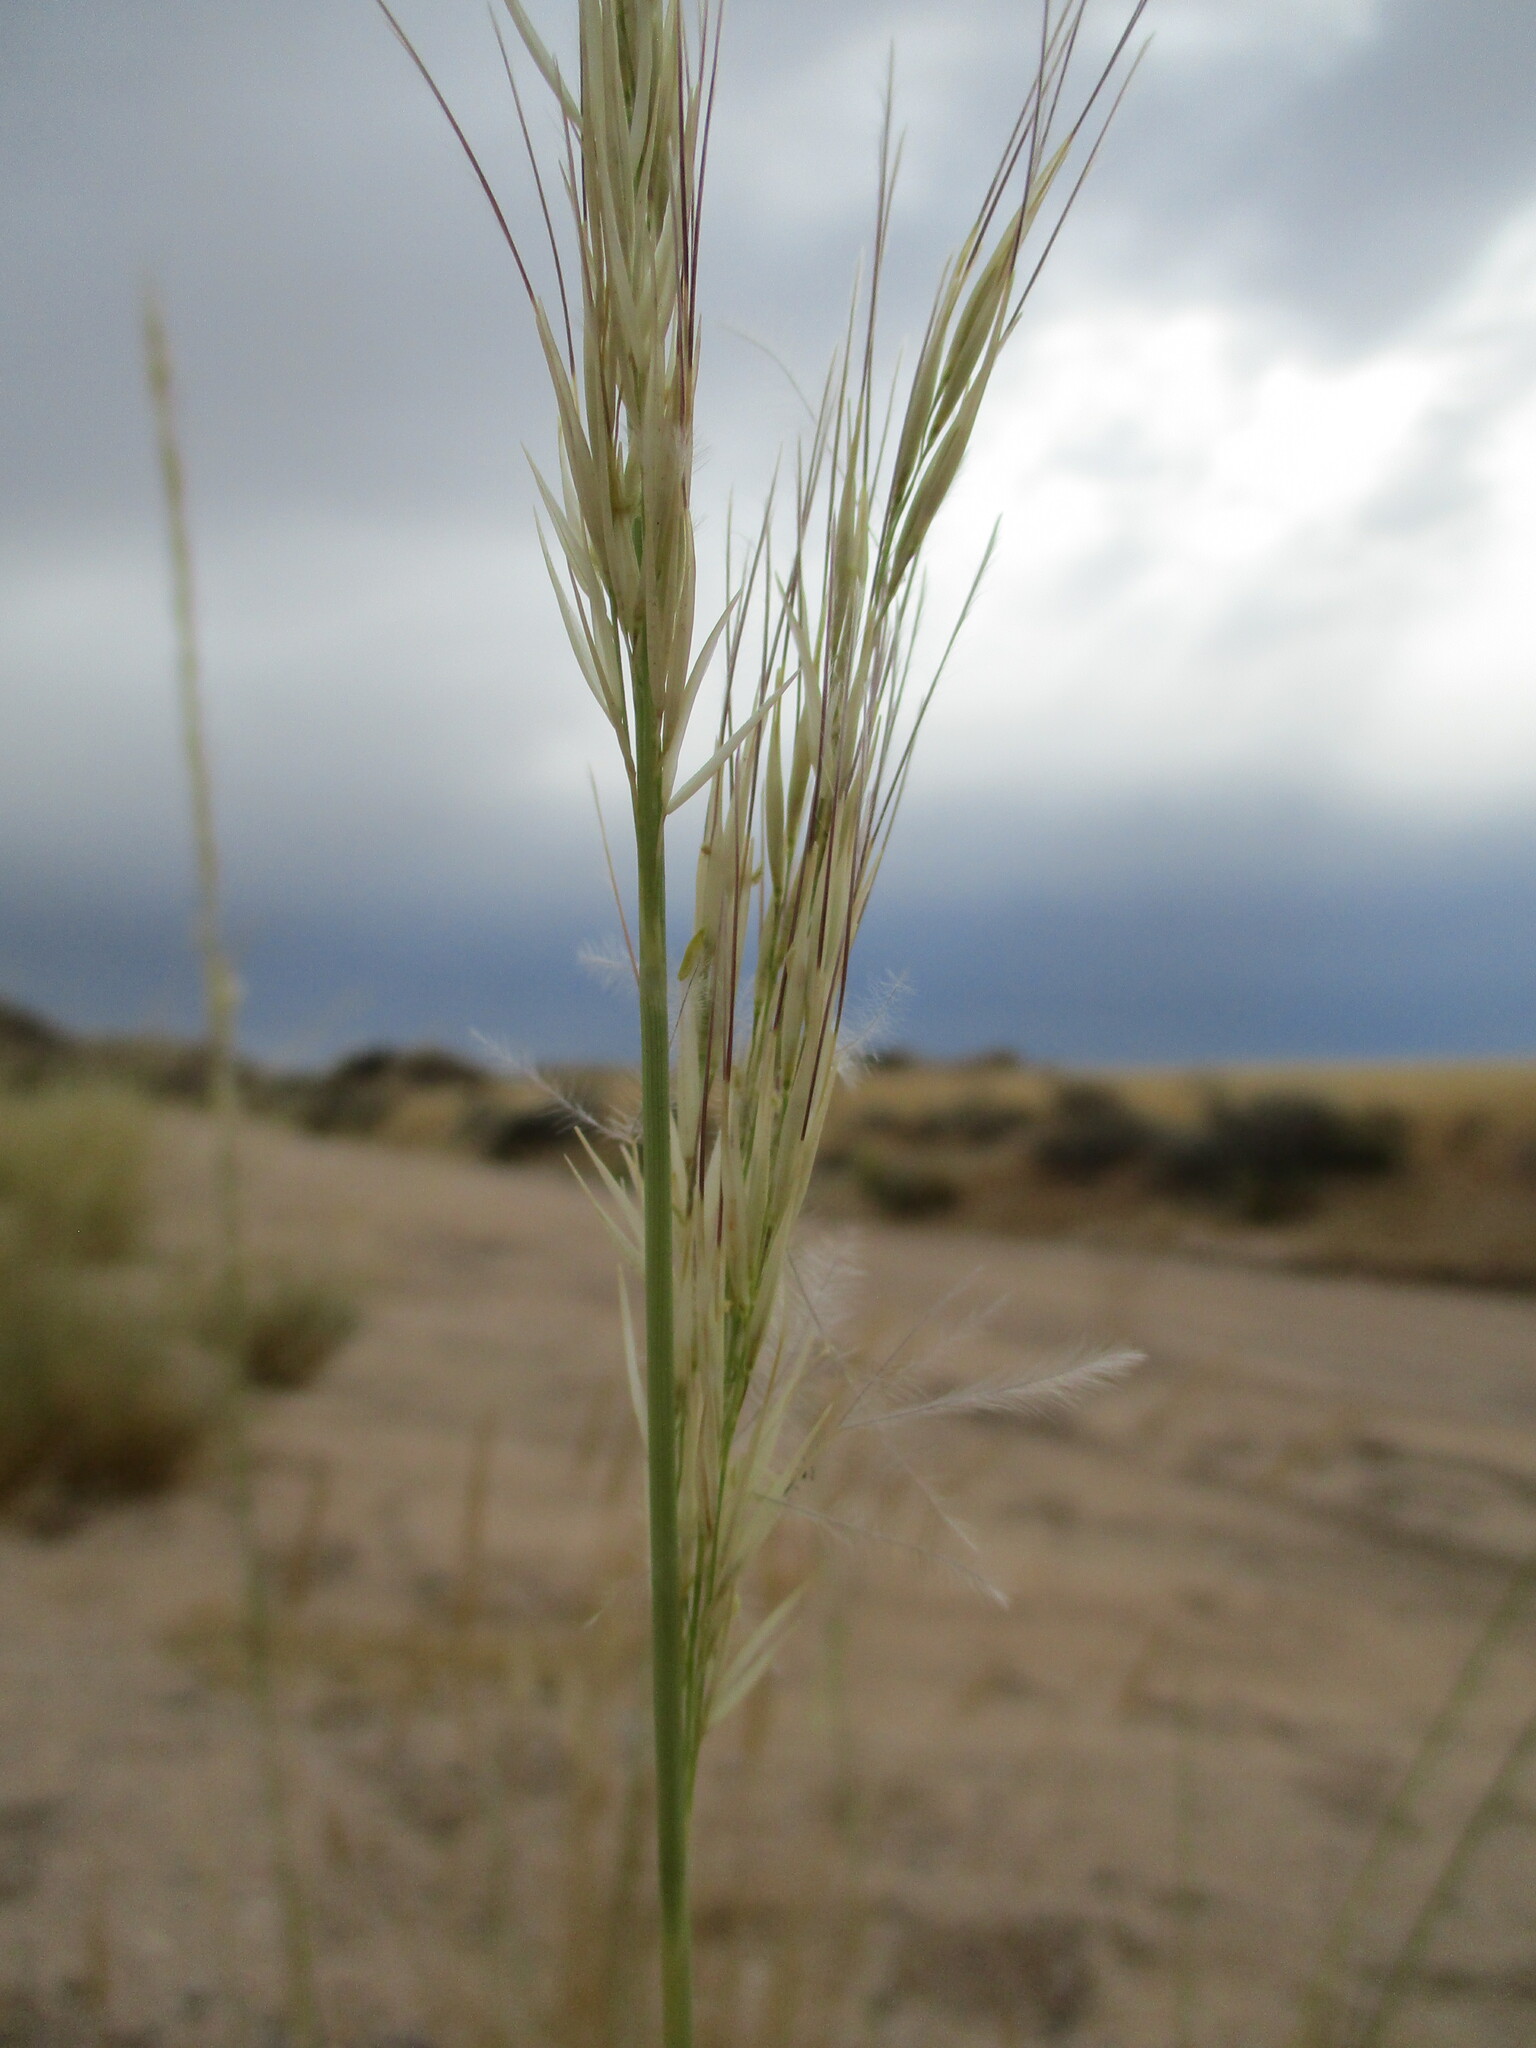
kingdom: Plantae
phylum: Tracheophyta
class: Liliopsida
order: Poales
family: Poaceae
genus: Stipagrostis
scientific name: Stipagrostis damarensis
